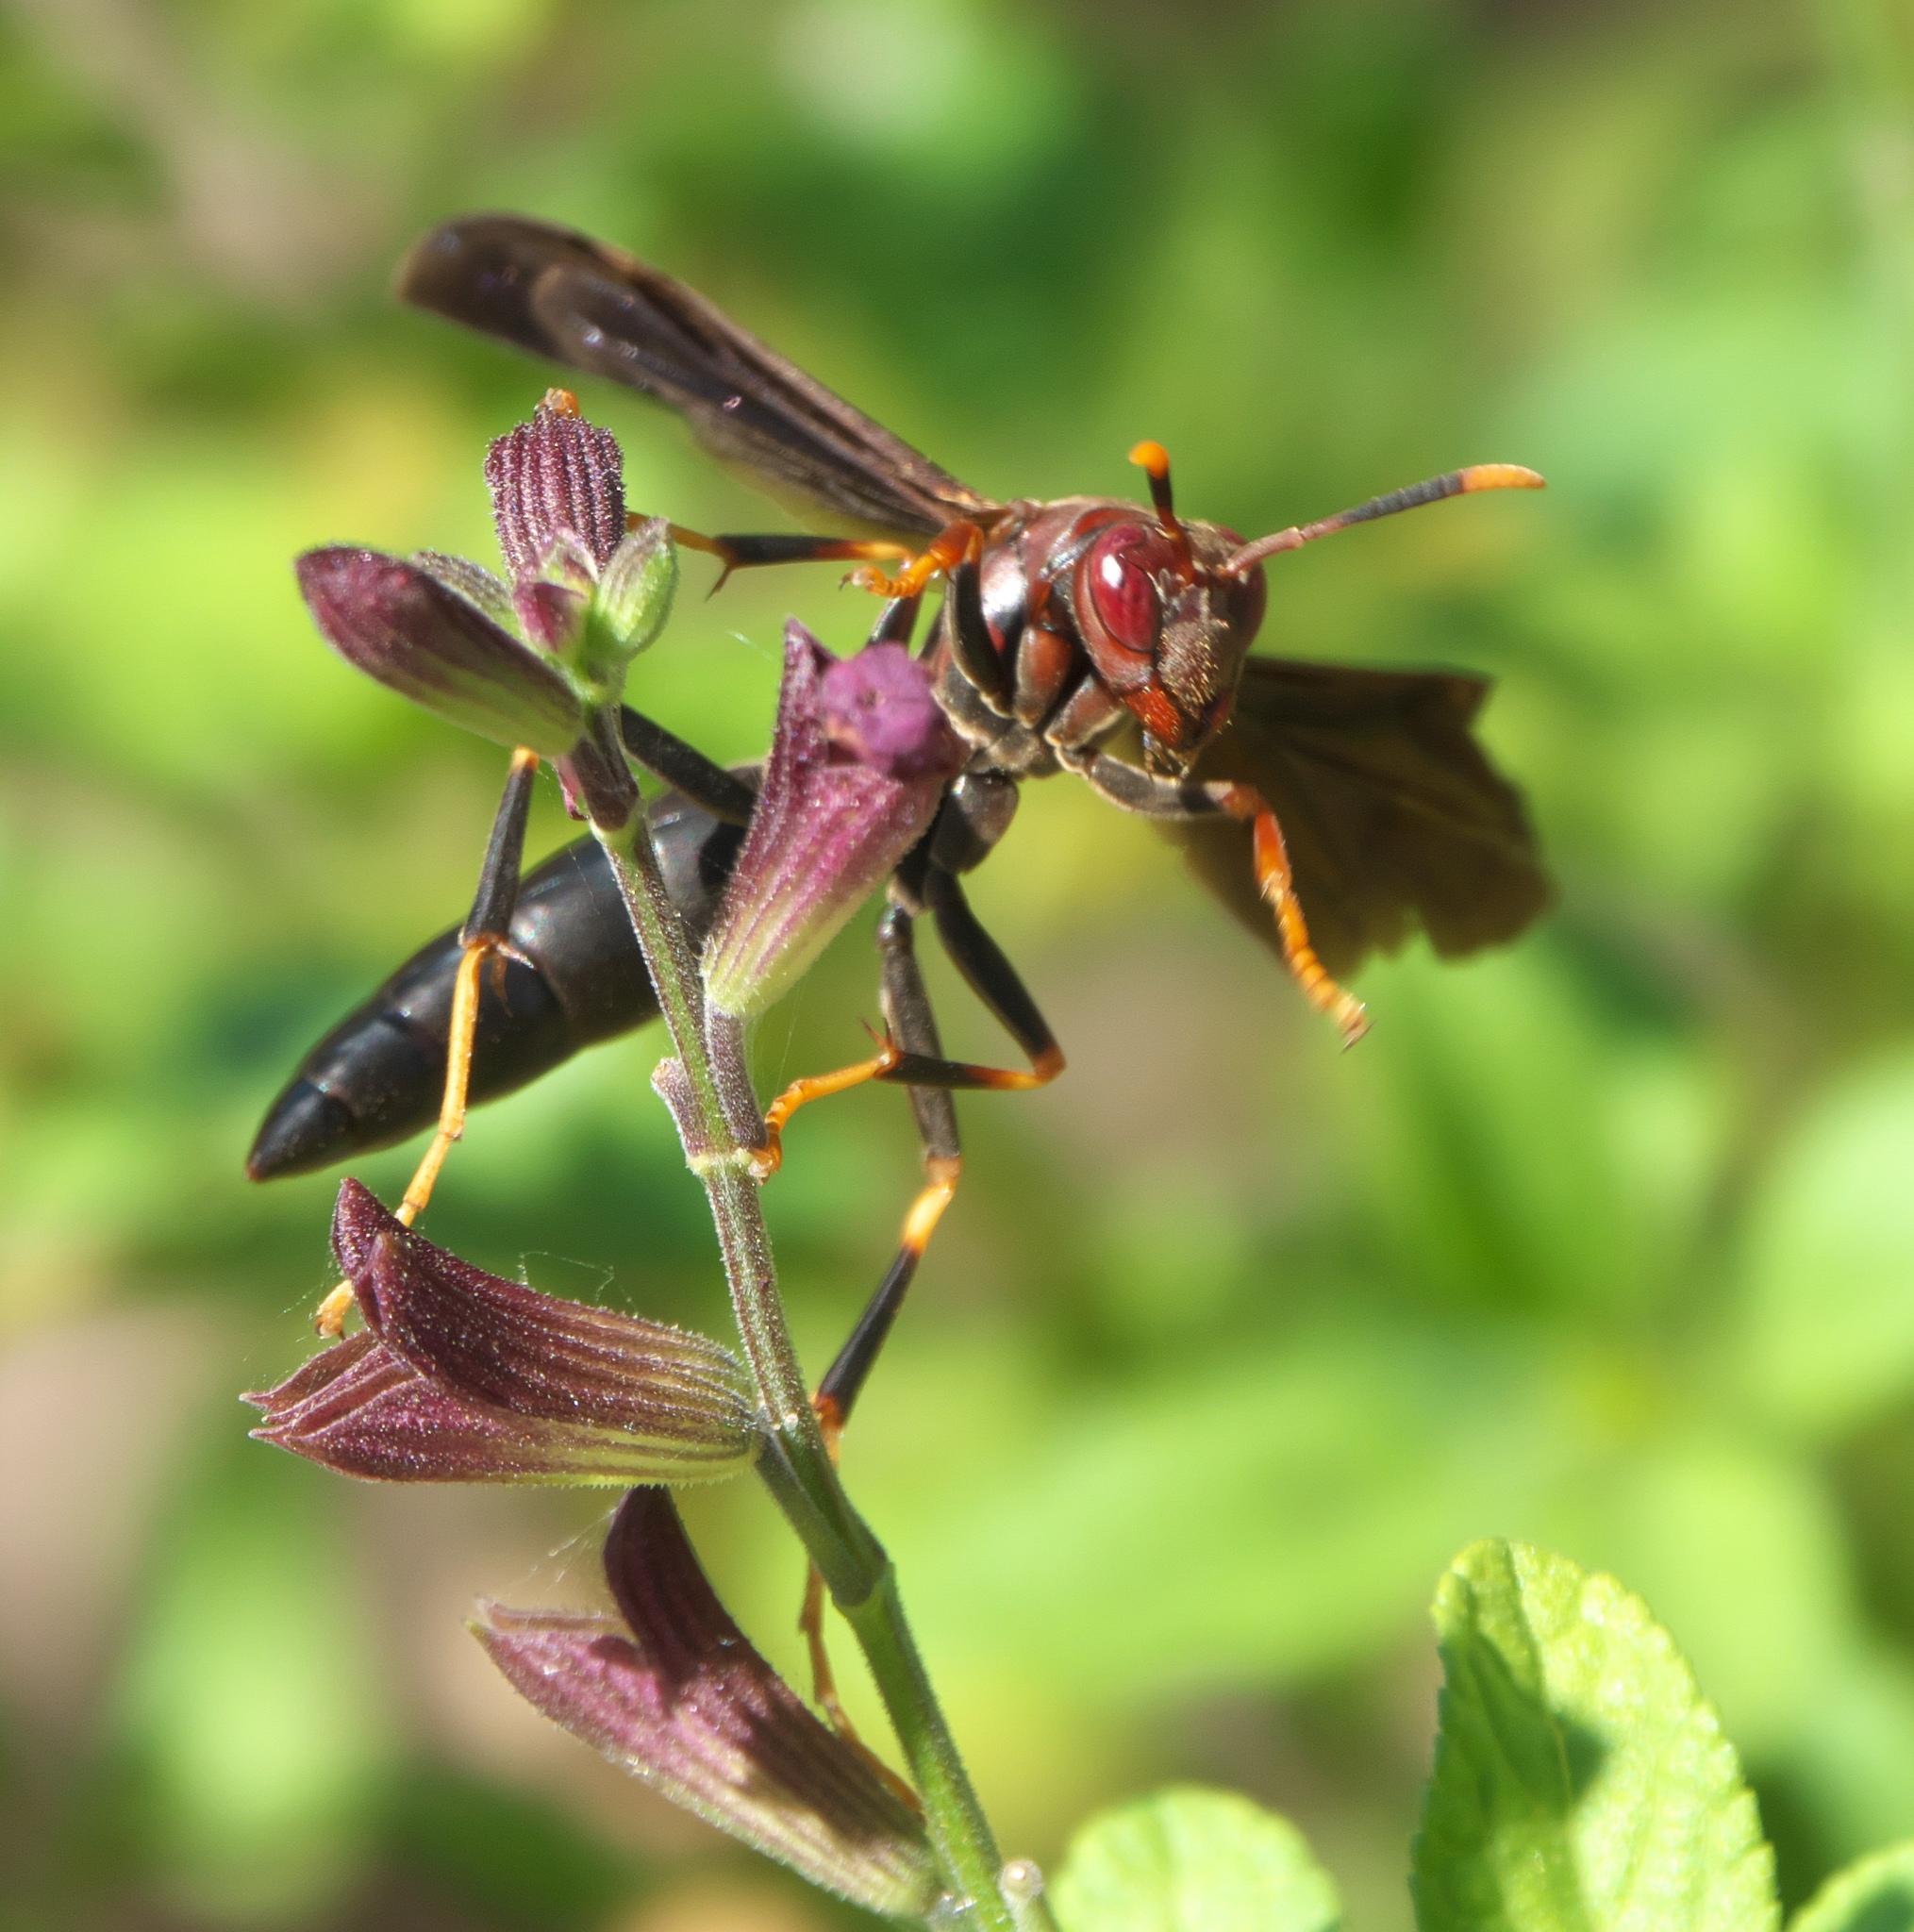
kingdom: Animalia
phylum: Arthropoda
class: Insecta
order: Hymenoptera
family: Eumenidae
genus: Polistes
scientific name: Polistes annularis
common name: Ringed paper wasp
